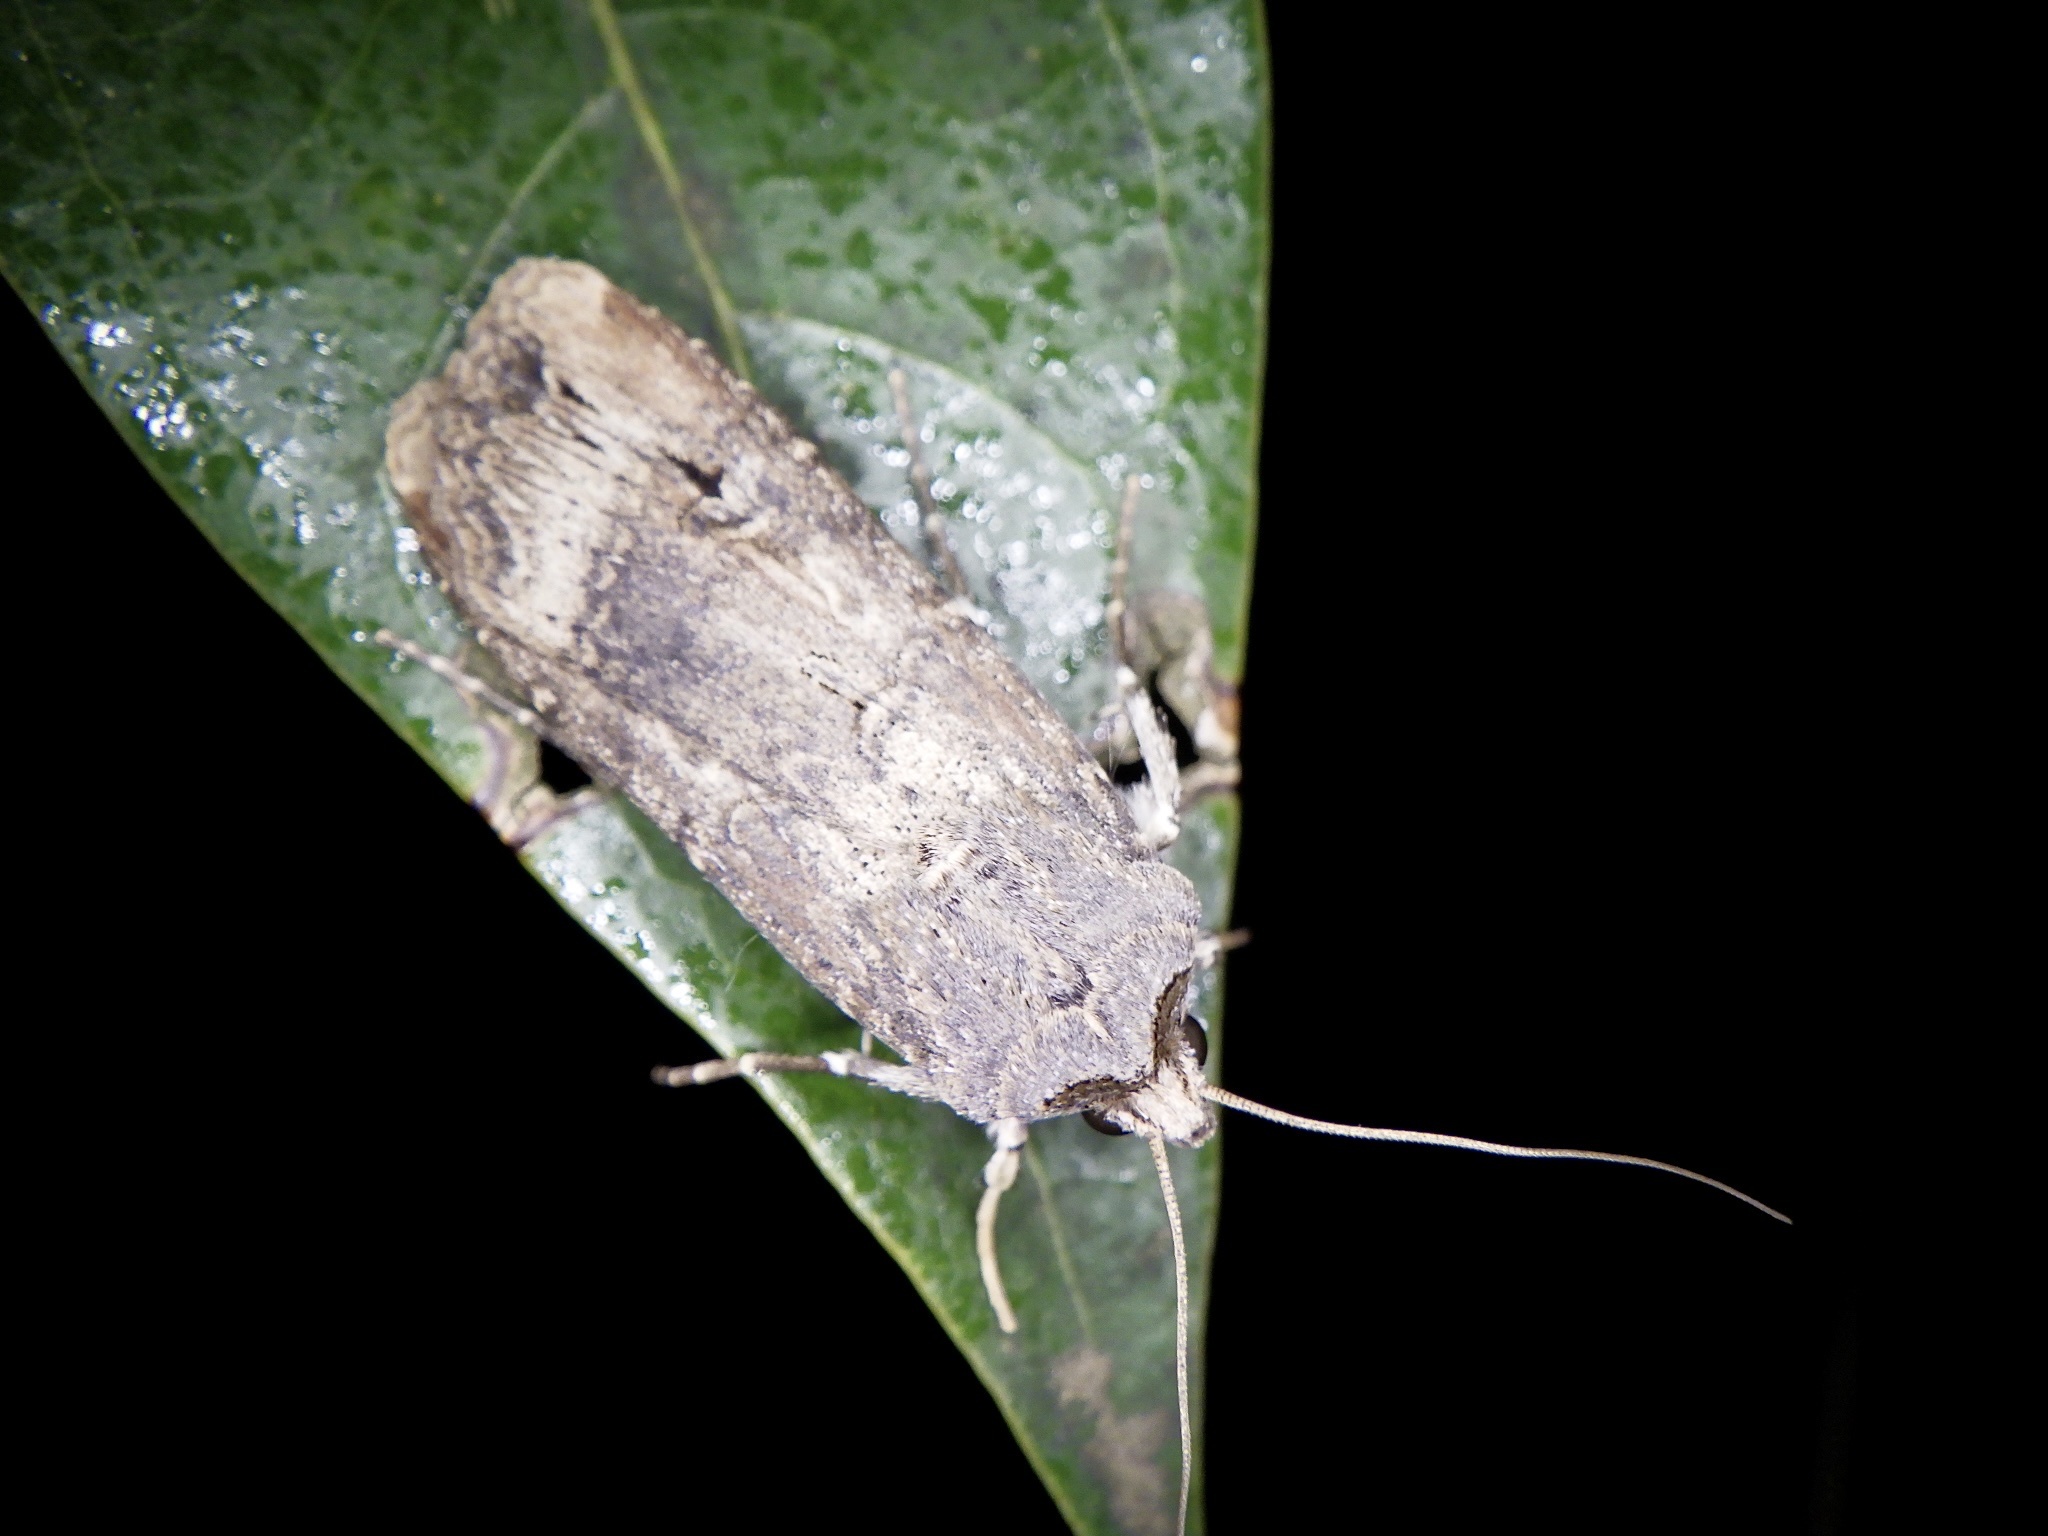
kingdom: Animalia
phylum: Arthropoda
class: Insecta
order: Lepidoptera
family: Noctuidae
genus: Agrotis
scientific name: Agrotis ipsilon
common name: Dark sword-grass
